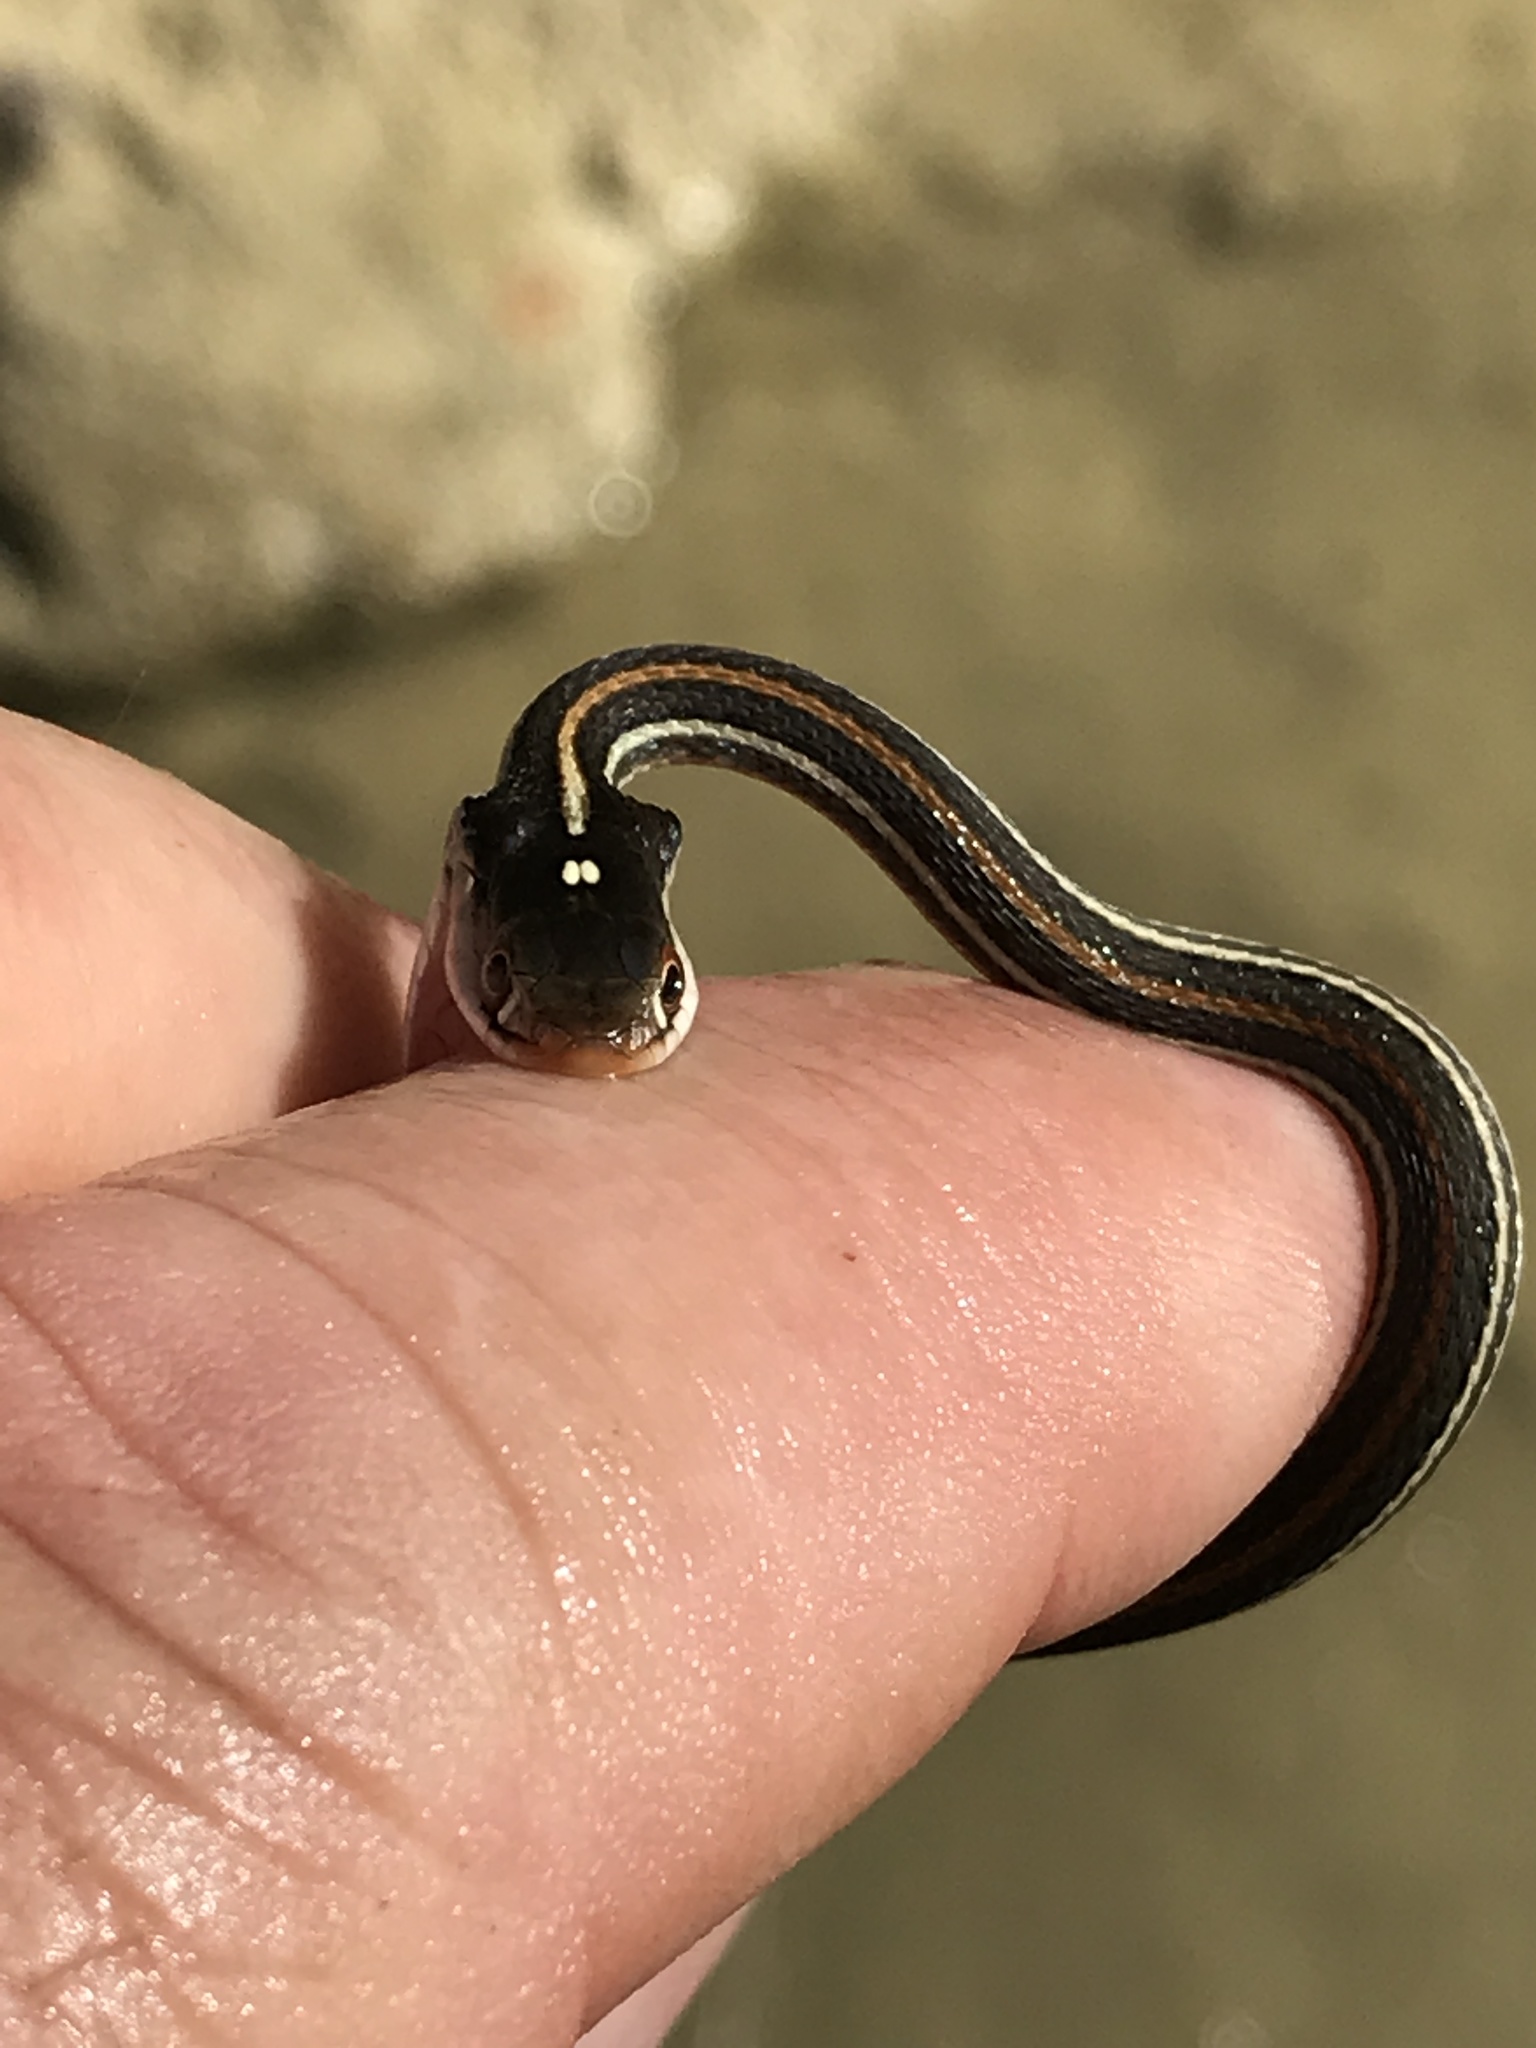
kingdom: Animalia
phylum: Chordata
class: Squamata
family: Colubridae
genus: Thamnophis
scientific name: Thamnophis proximus
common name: Western ribbon snake
